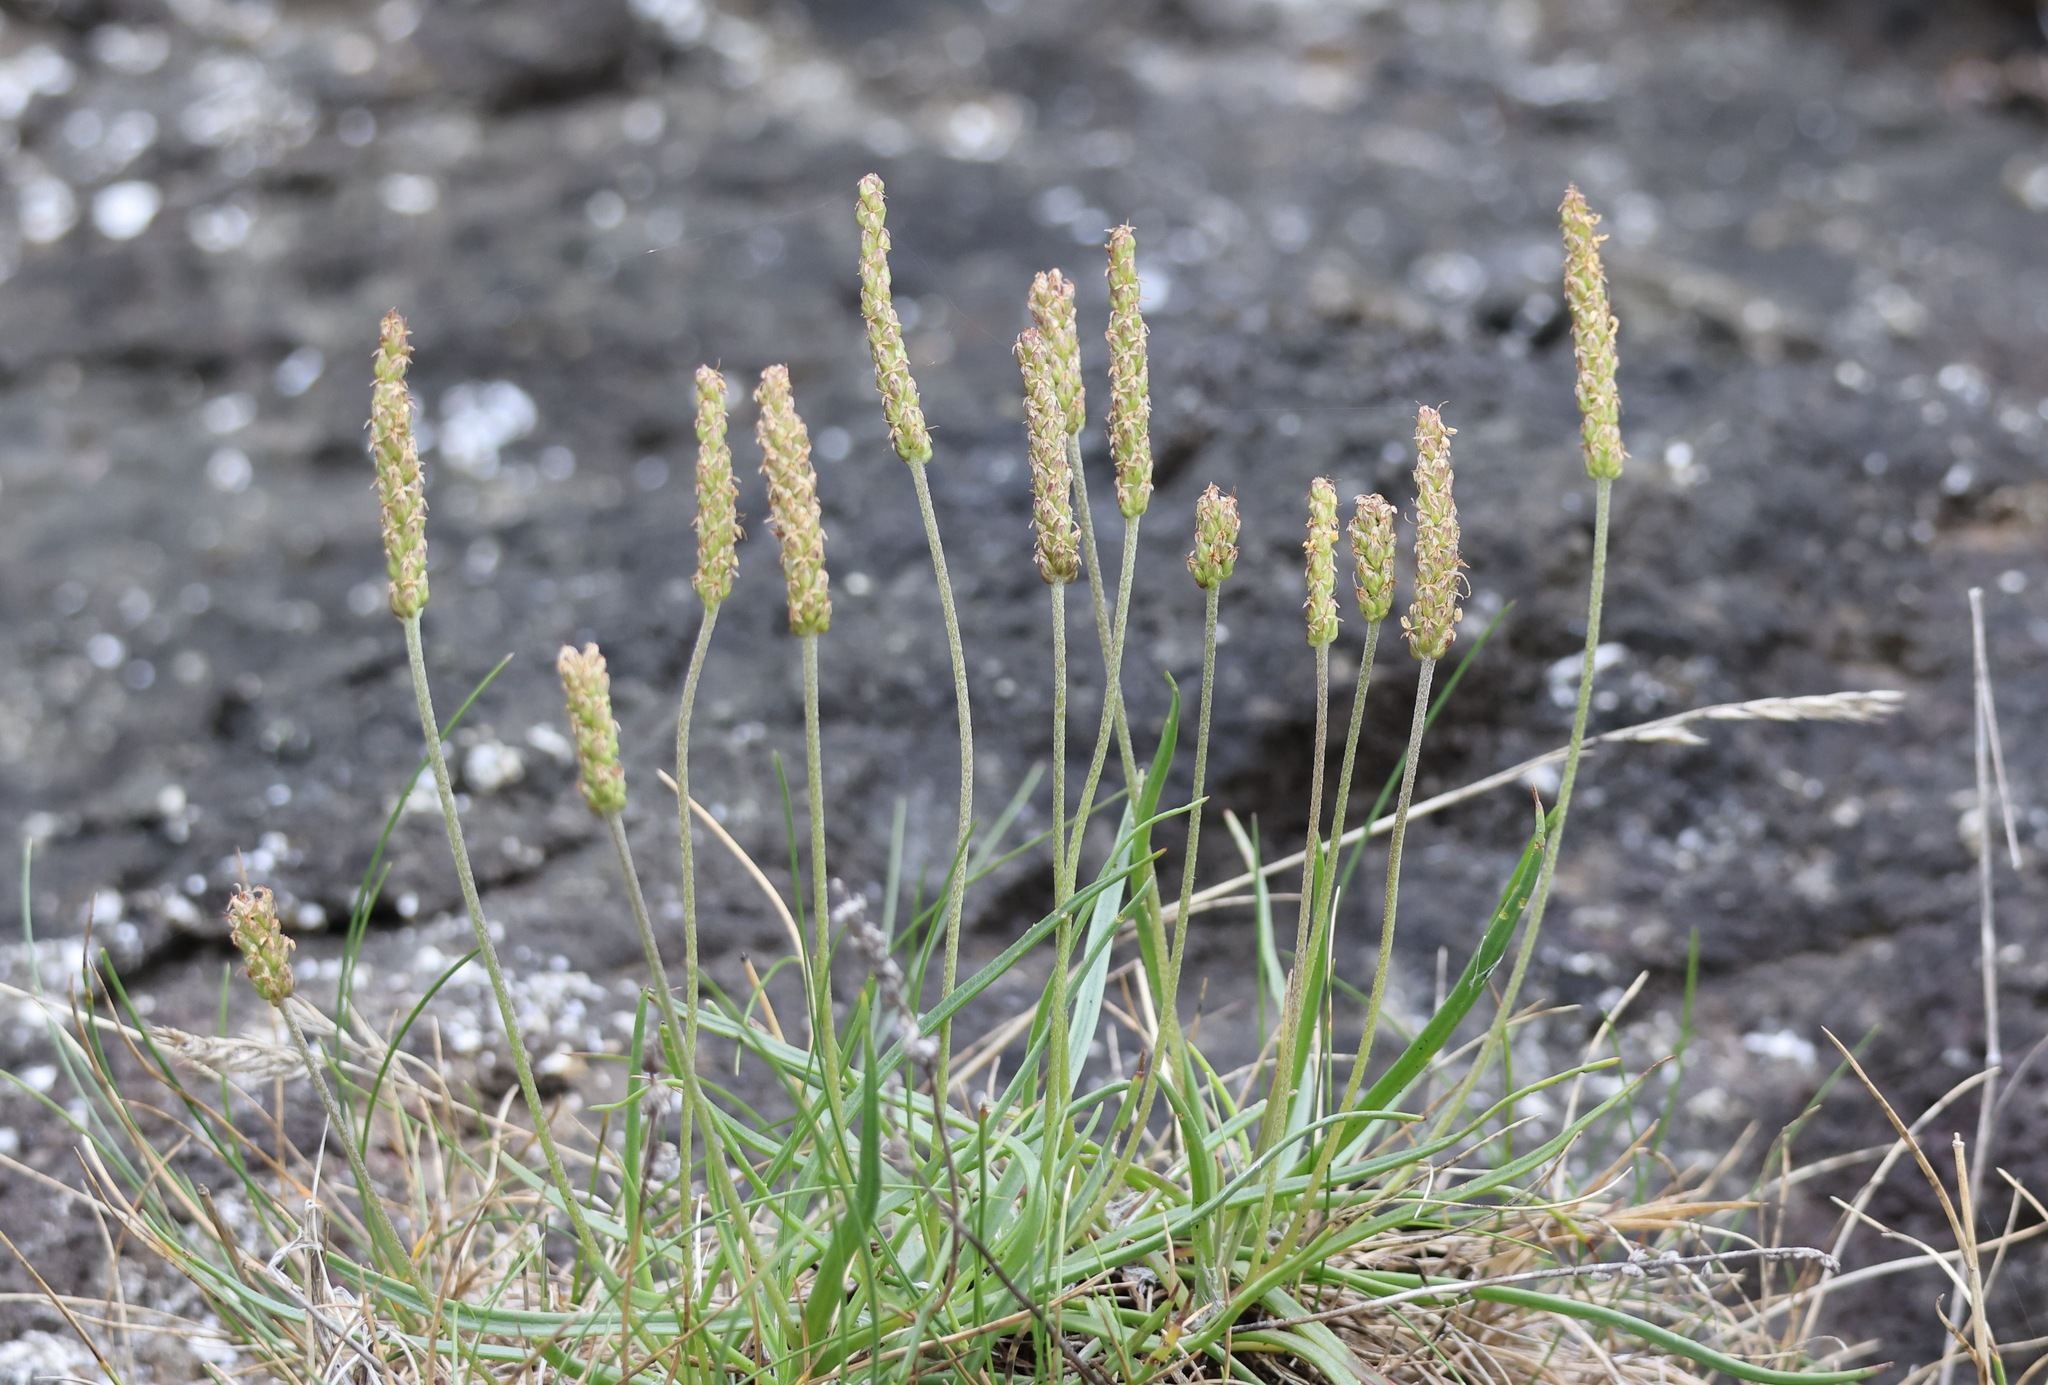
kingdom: Plantae
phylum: Tracheophyta
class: Magnoliopsida
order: Lamiales
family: Plantaginaceae
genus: Plantago
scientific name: Plantago maritima
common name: Sea plantain
